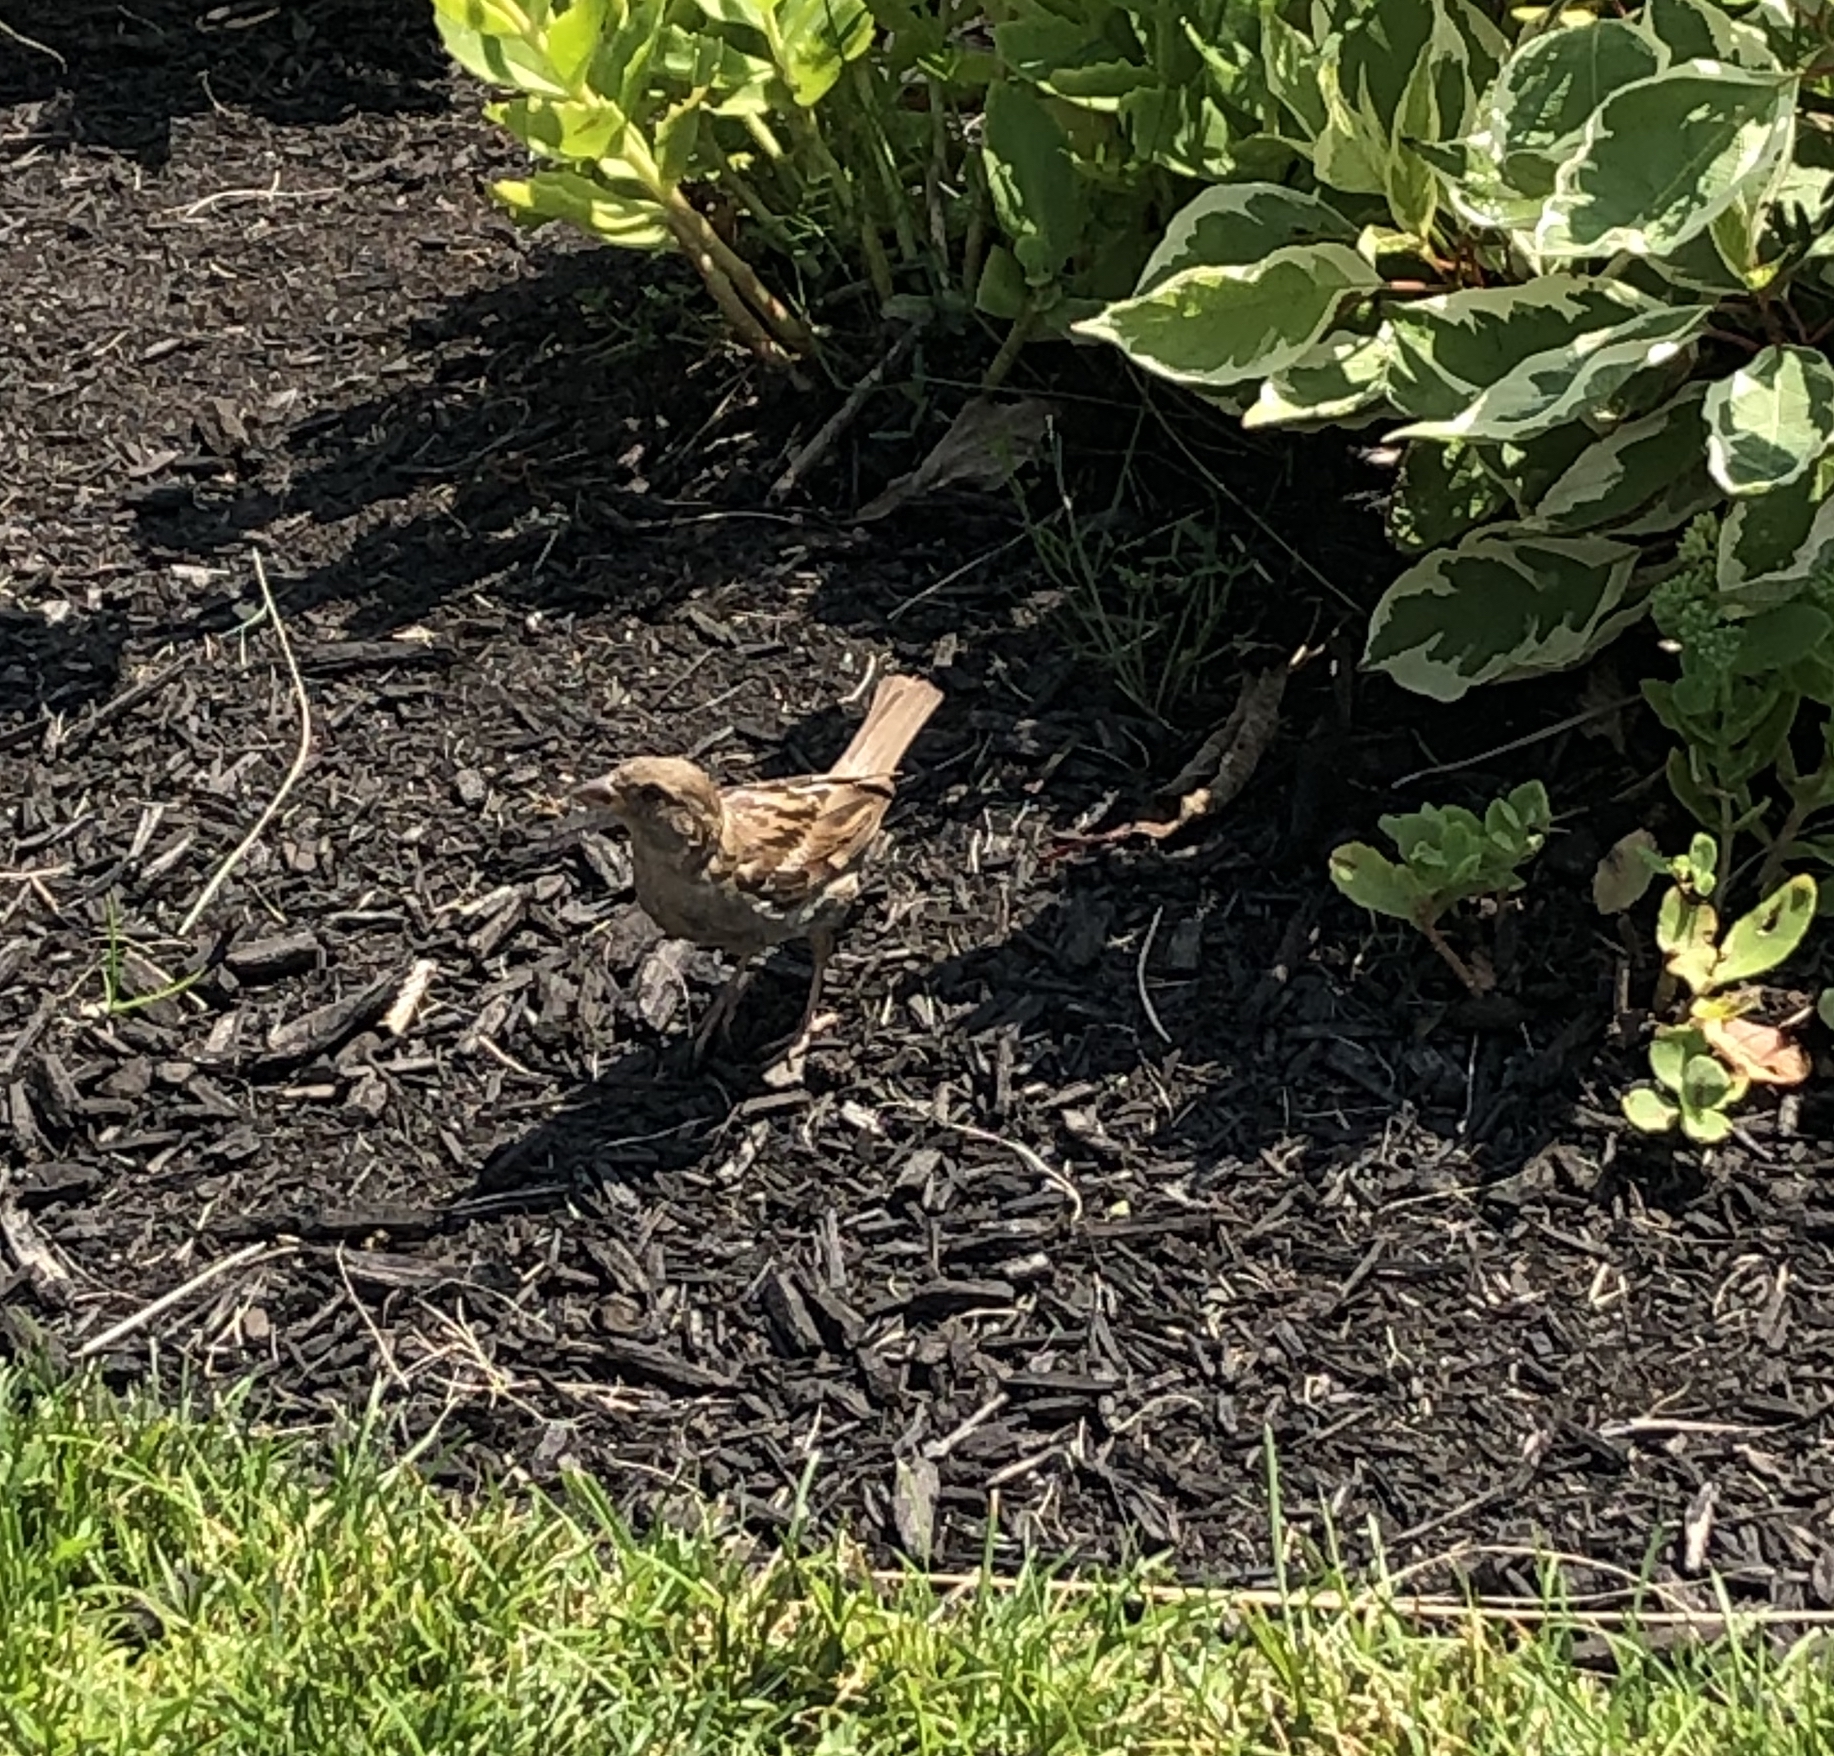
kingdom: Animalia
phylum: Chordata
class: Aves
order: Passeriformes
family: Passeridae
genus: Passer
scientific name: Passer domesticus
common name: House sparrow
